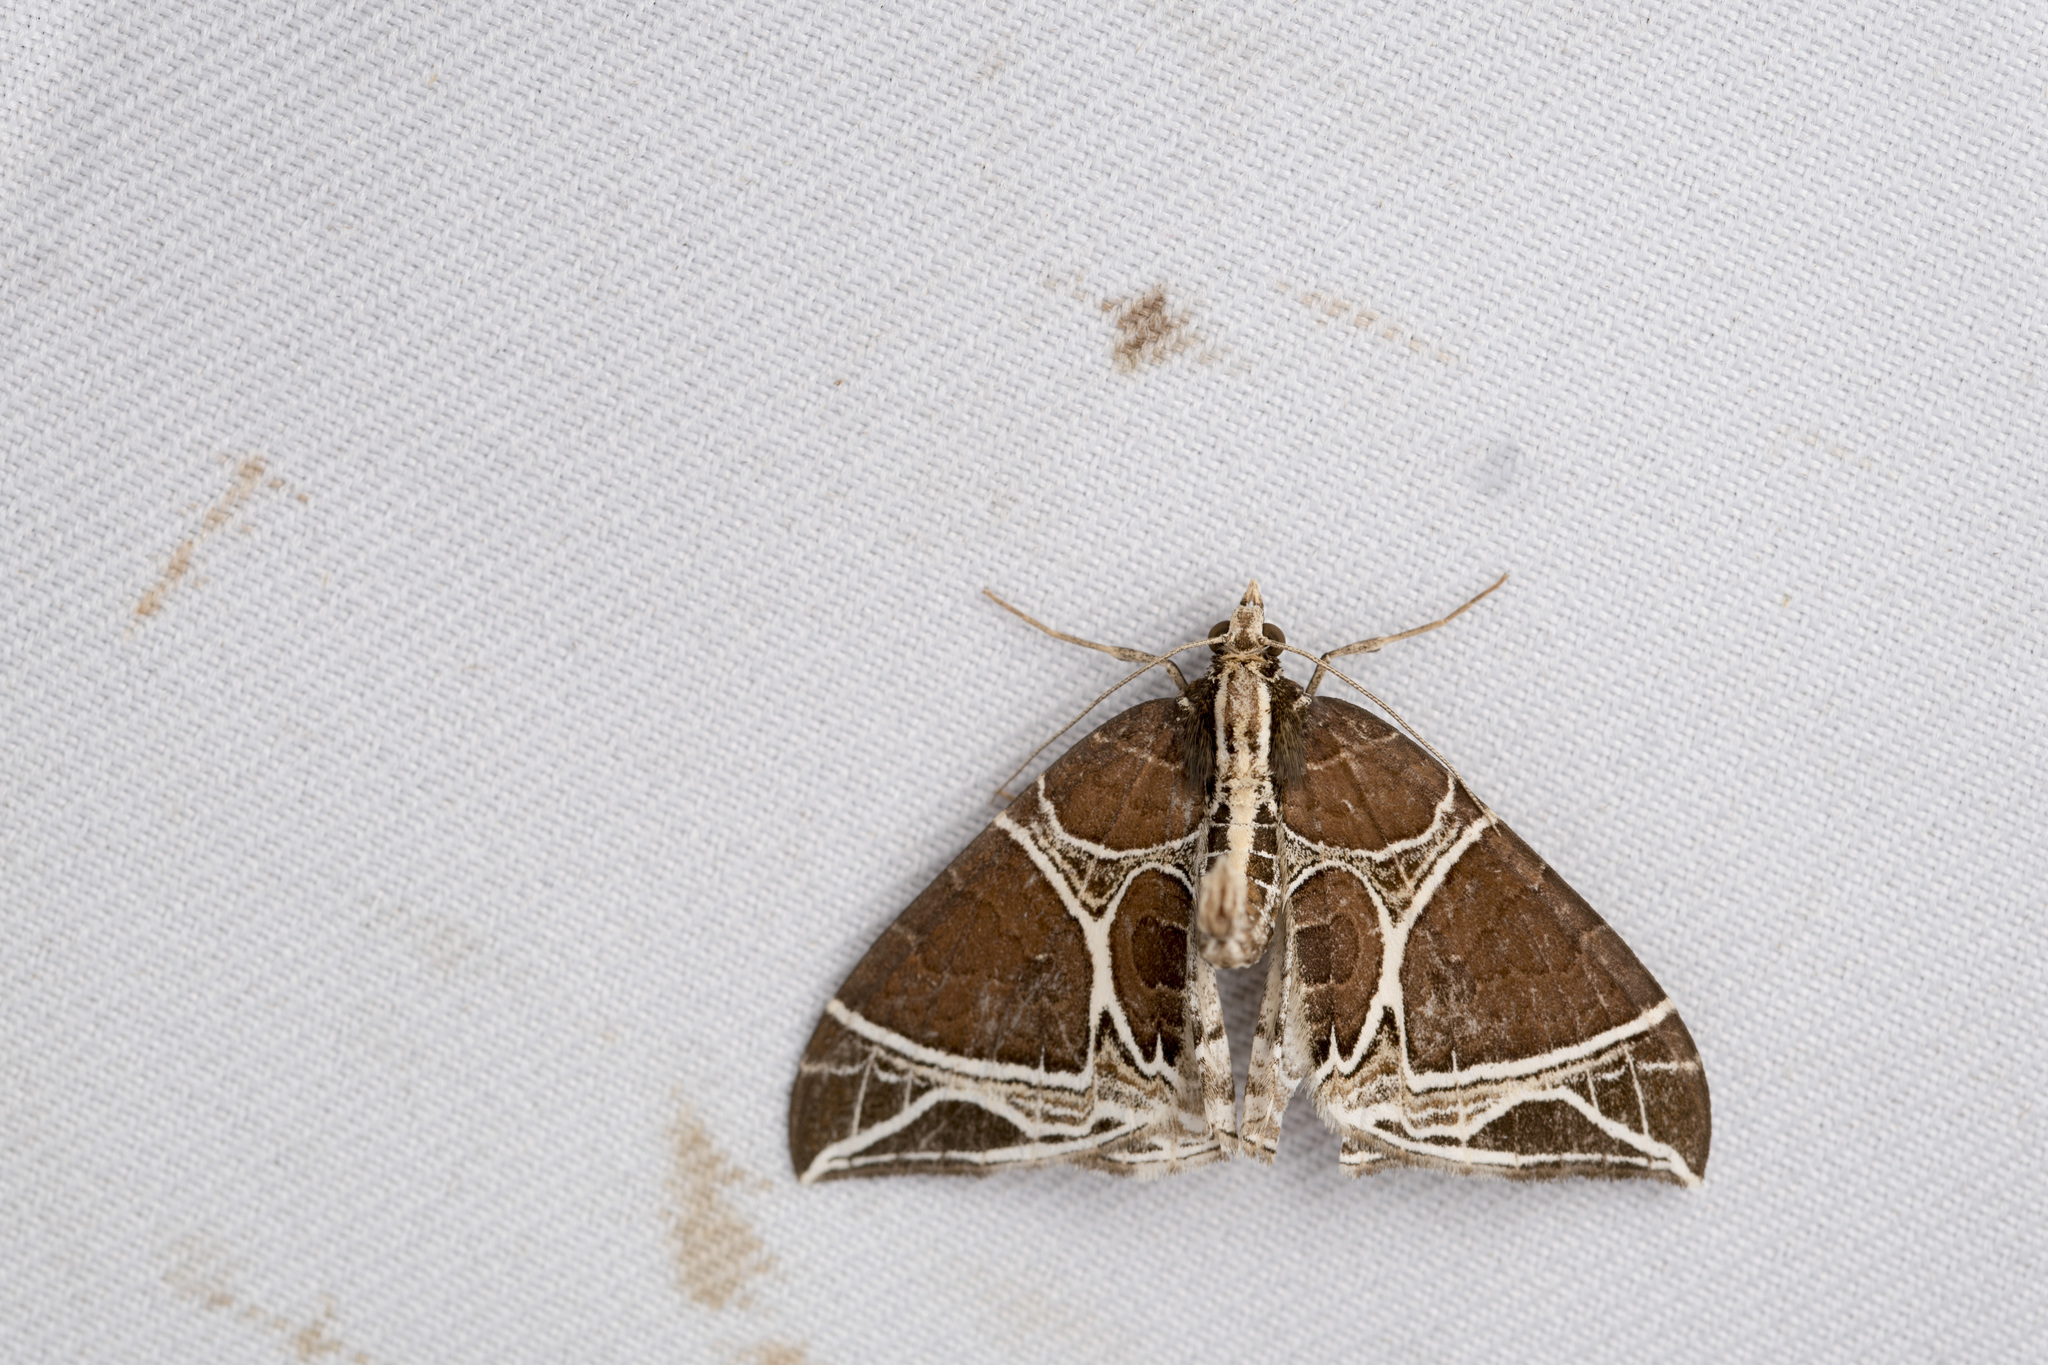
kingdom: Animalia
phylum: Arthropoda
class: Insecta
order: Lepidoptera
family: Geometridae
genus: Ecliptopera
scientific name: Ecliptopera benigna
